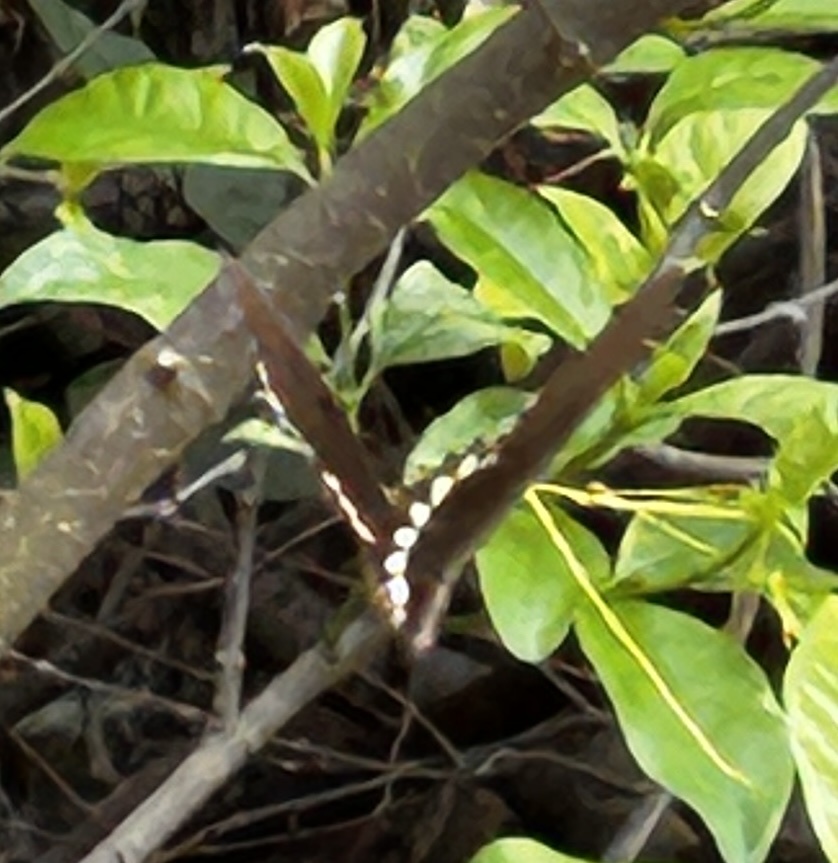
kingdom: Animalia
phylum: Arthropoda
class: Insecta
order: Lepidoptera
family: Papilionidae
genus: Papilio
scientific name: Papilio polytes
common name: Common mormon
